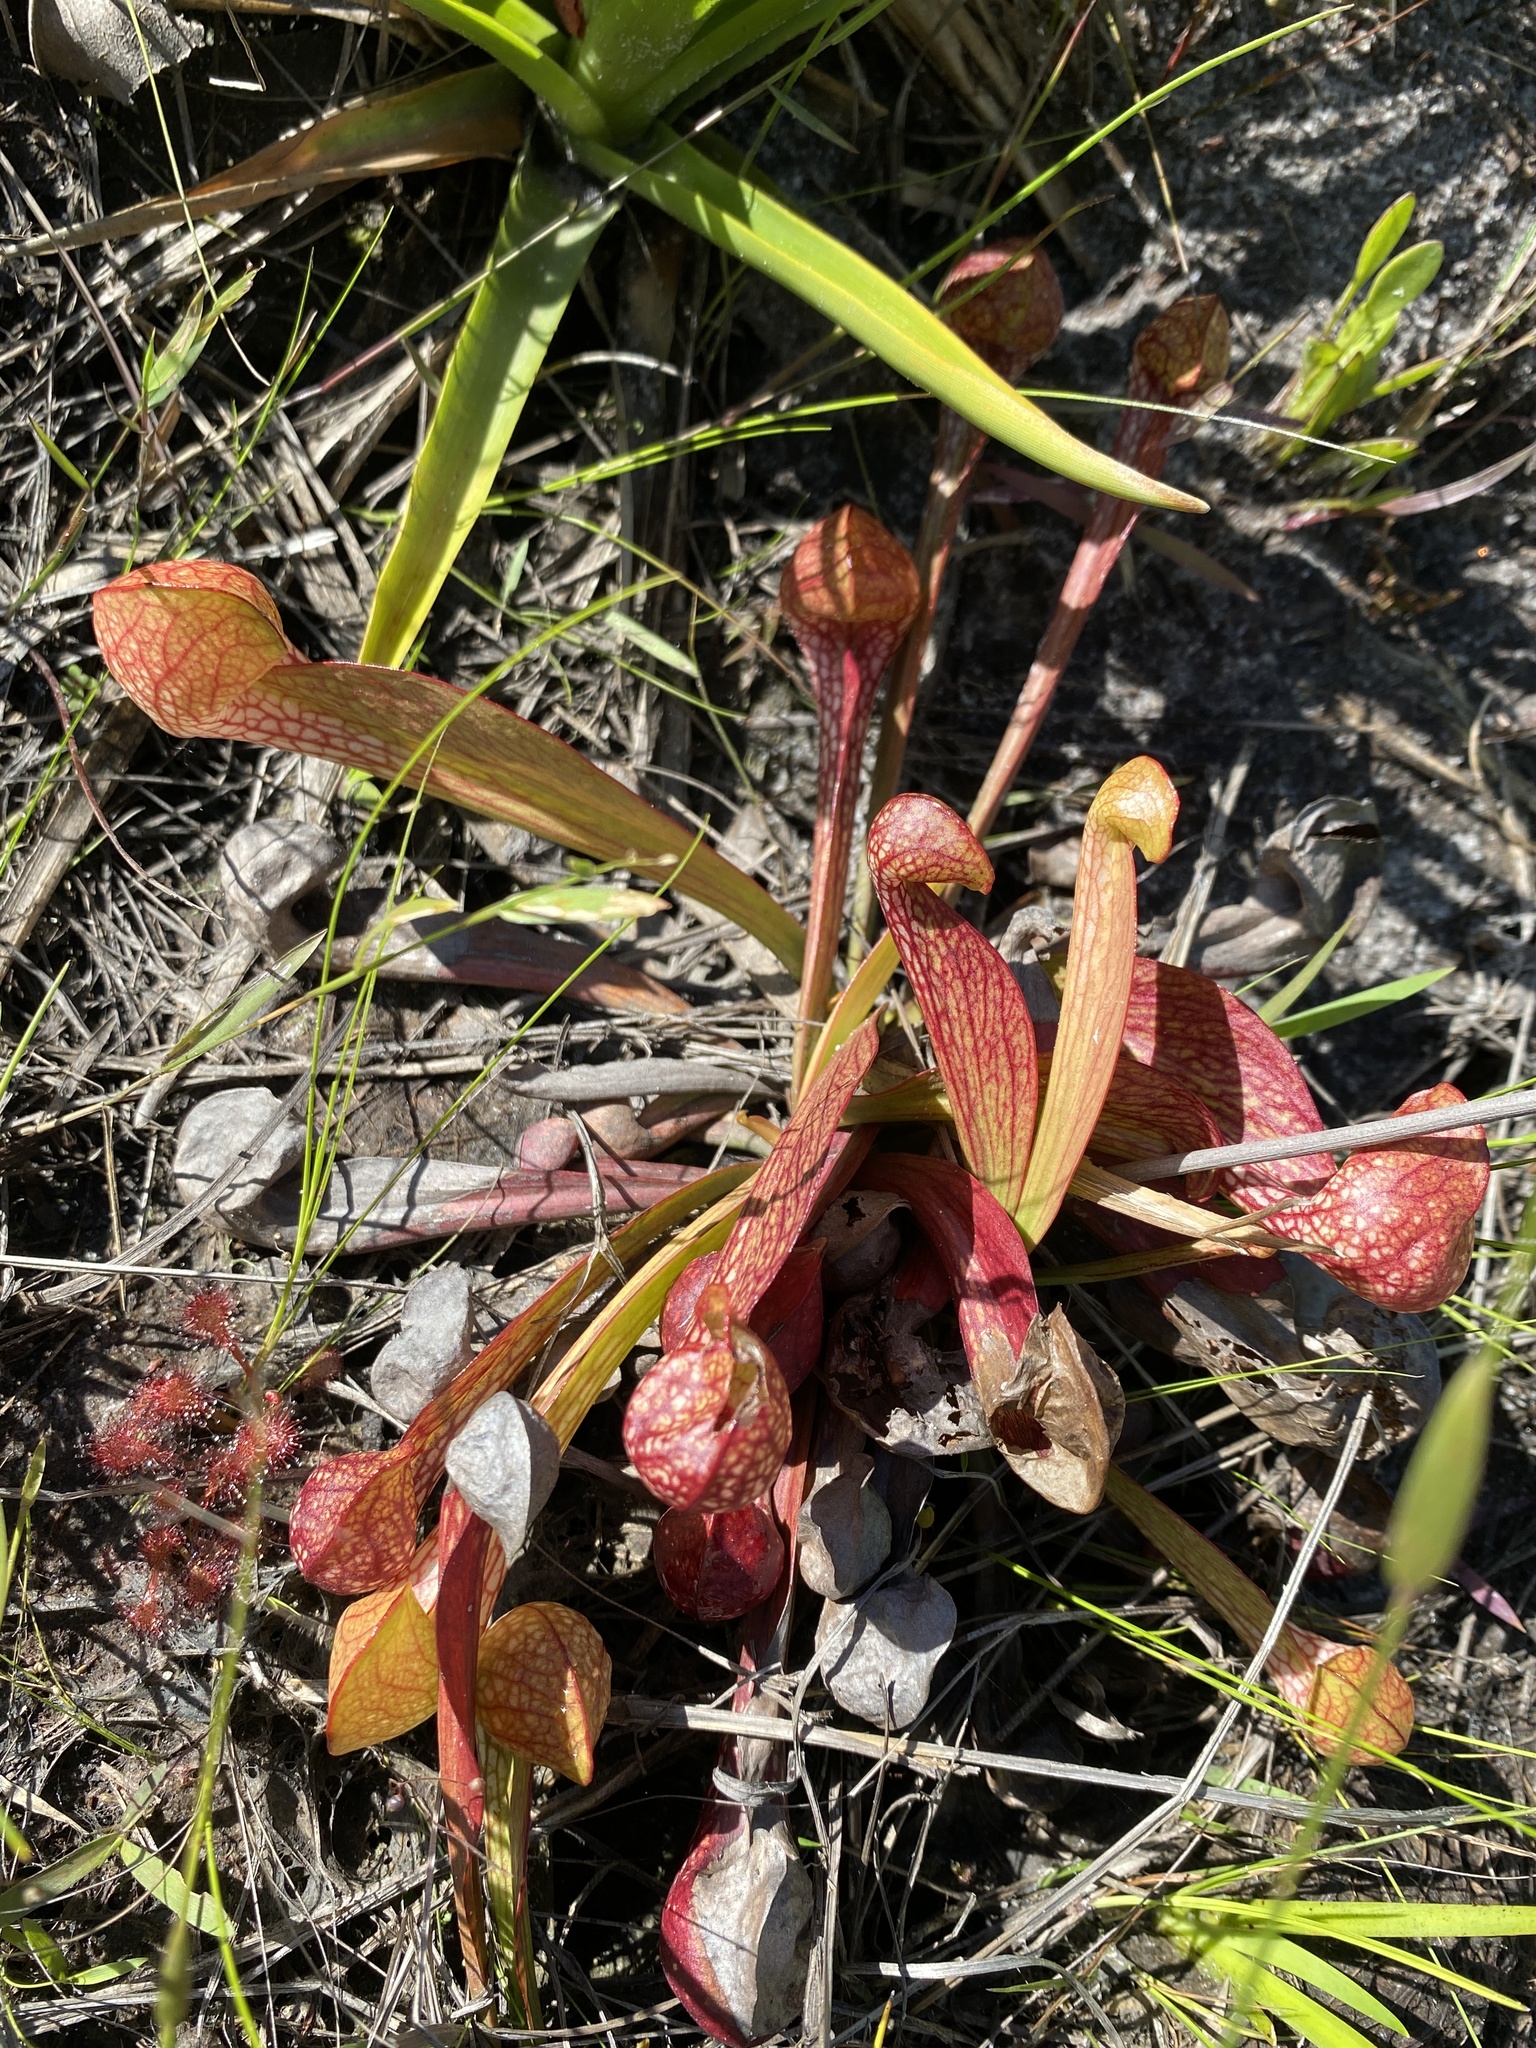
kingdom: Plantae
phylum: Tracheophyta
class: Magnoliopsida
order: Ericales
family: Sarraceniaceae
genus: Sarracenia
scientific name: Sarracenia psittacina
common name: Parrot pitcherplant
